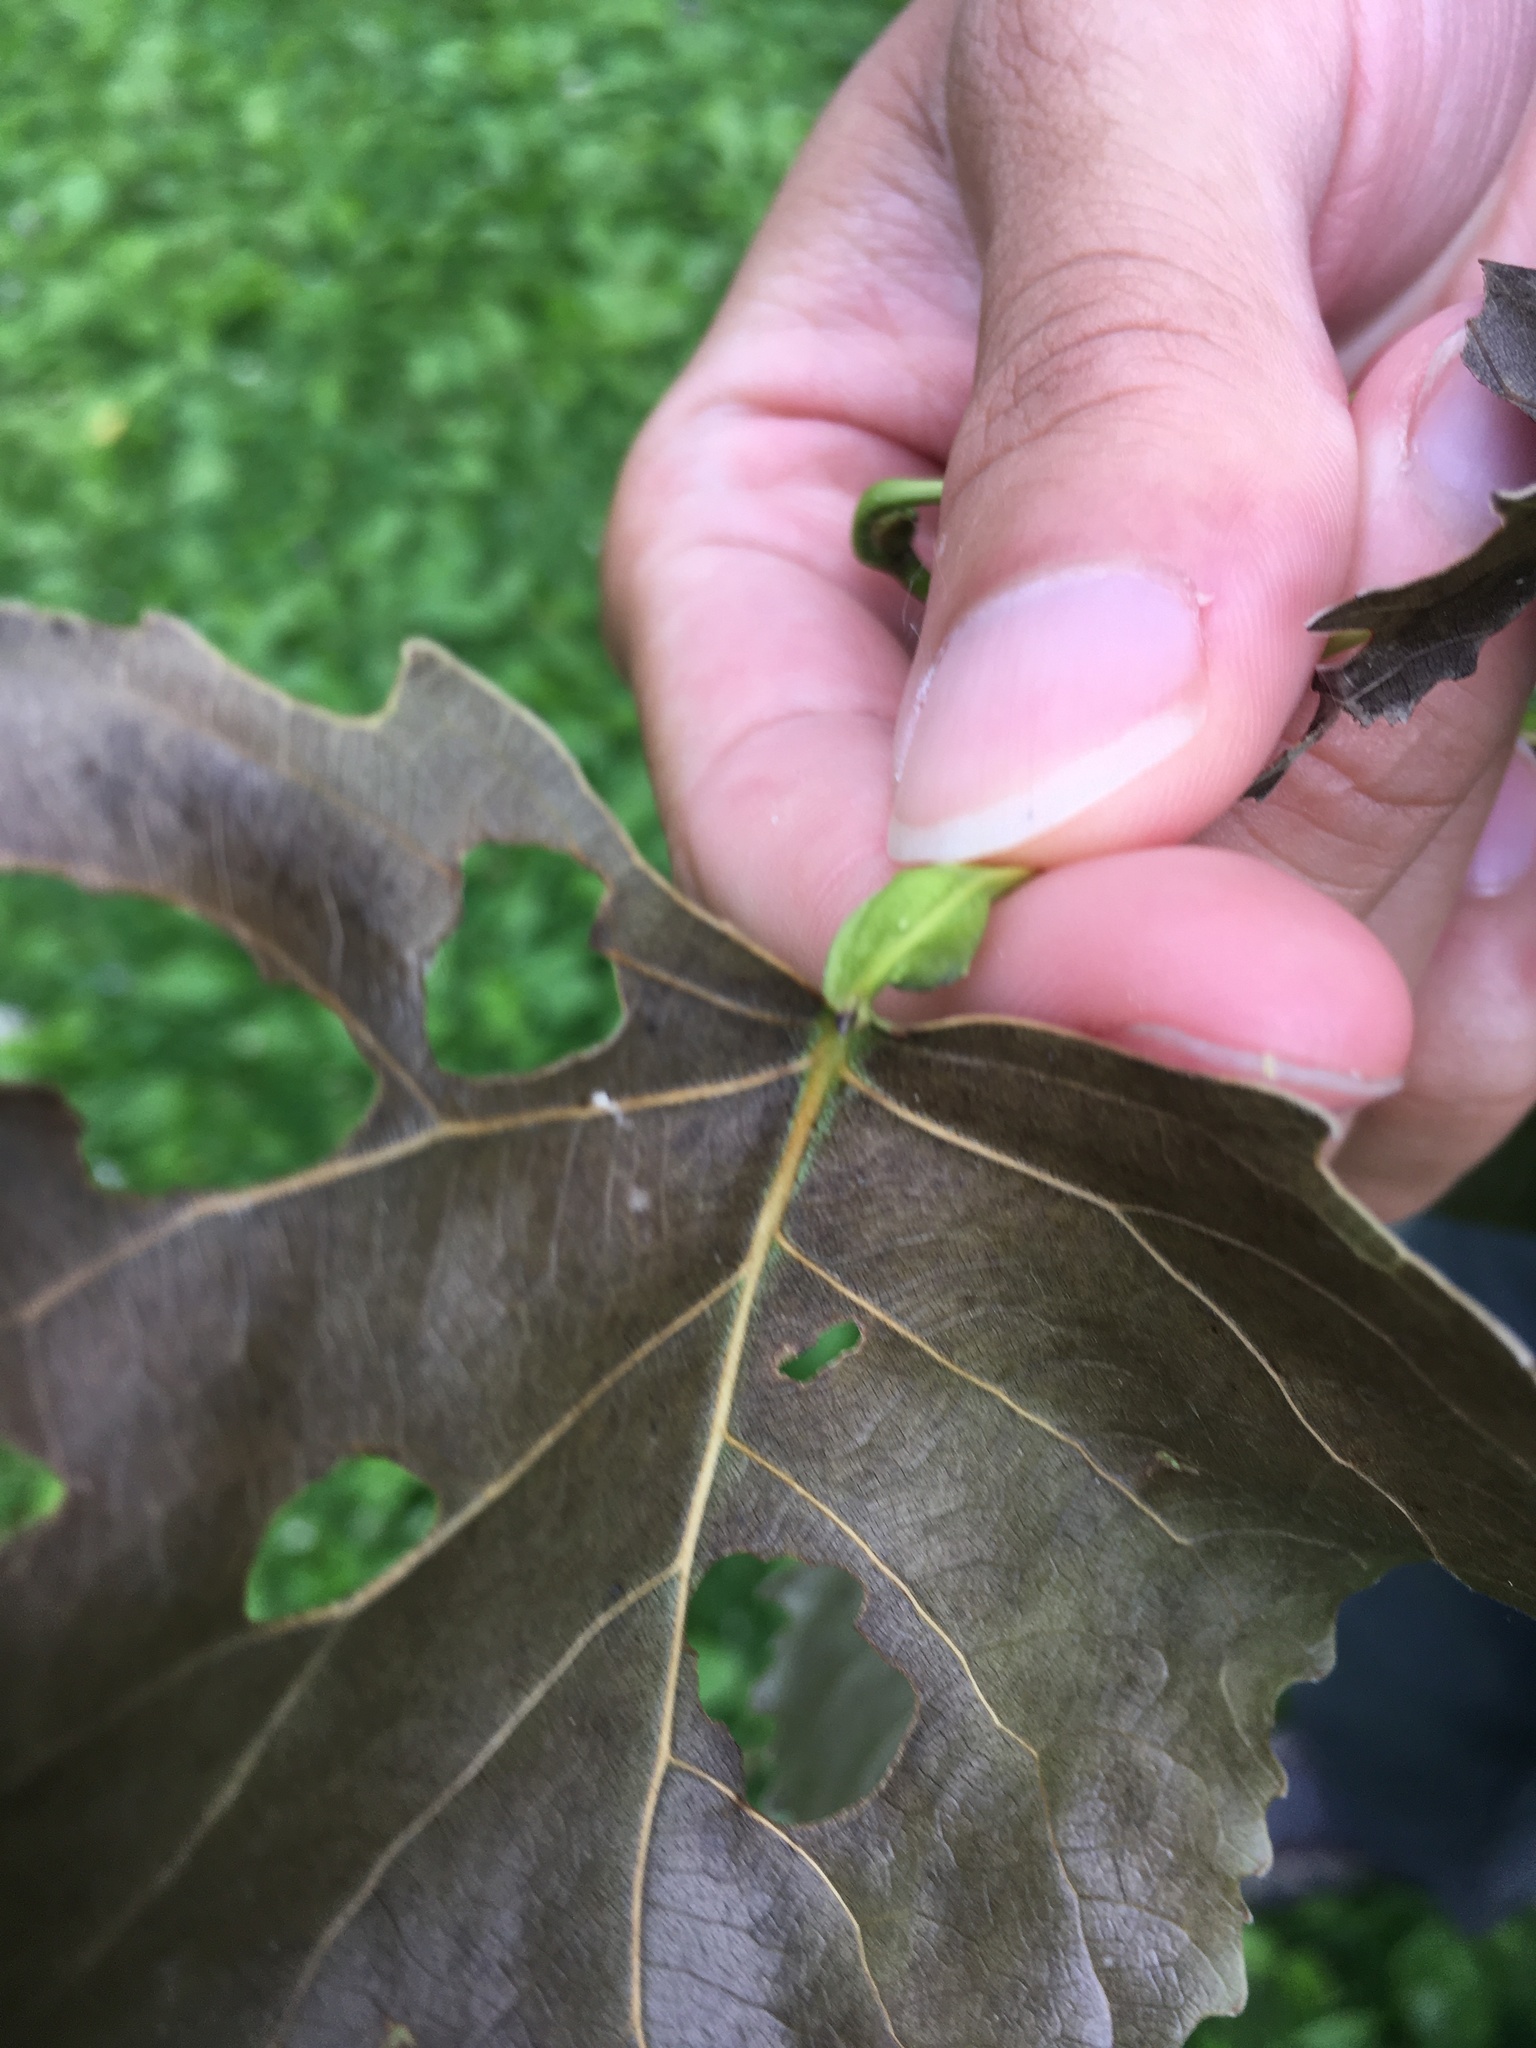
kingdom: Animalia
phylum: Arthropoda
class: Insecta
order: Hemiptera
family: Aphididae
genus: Pemphigus
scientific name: Pemphigus populitransversus
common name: Poplar petiolegall aphid
